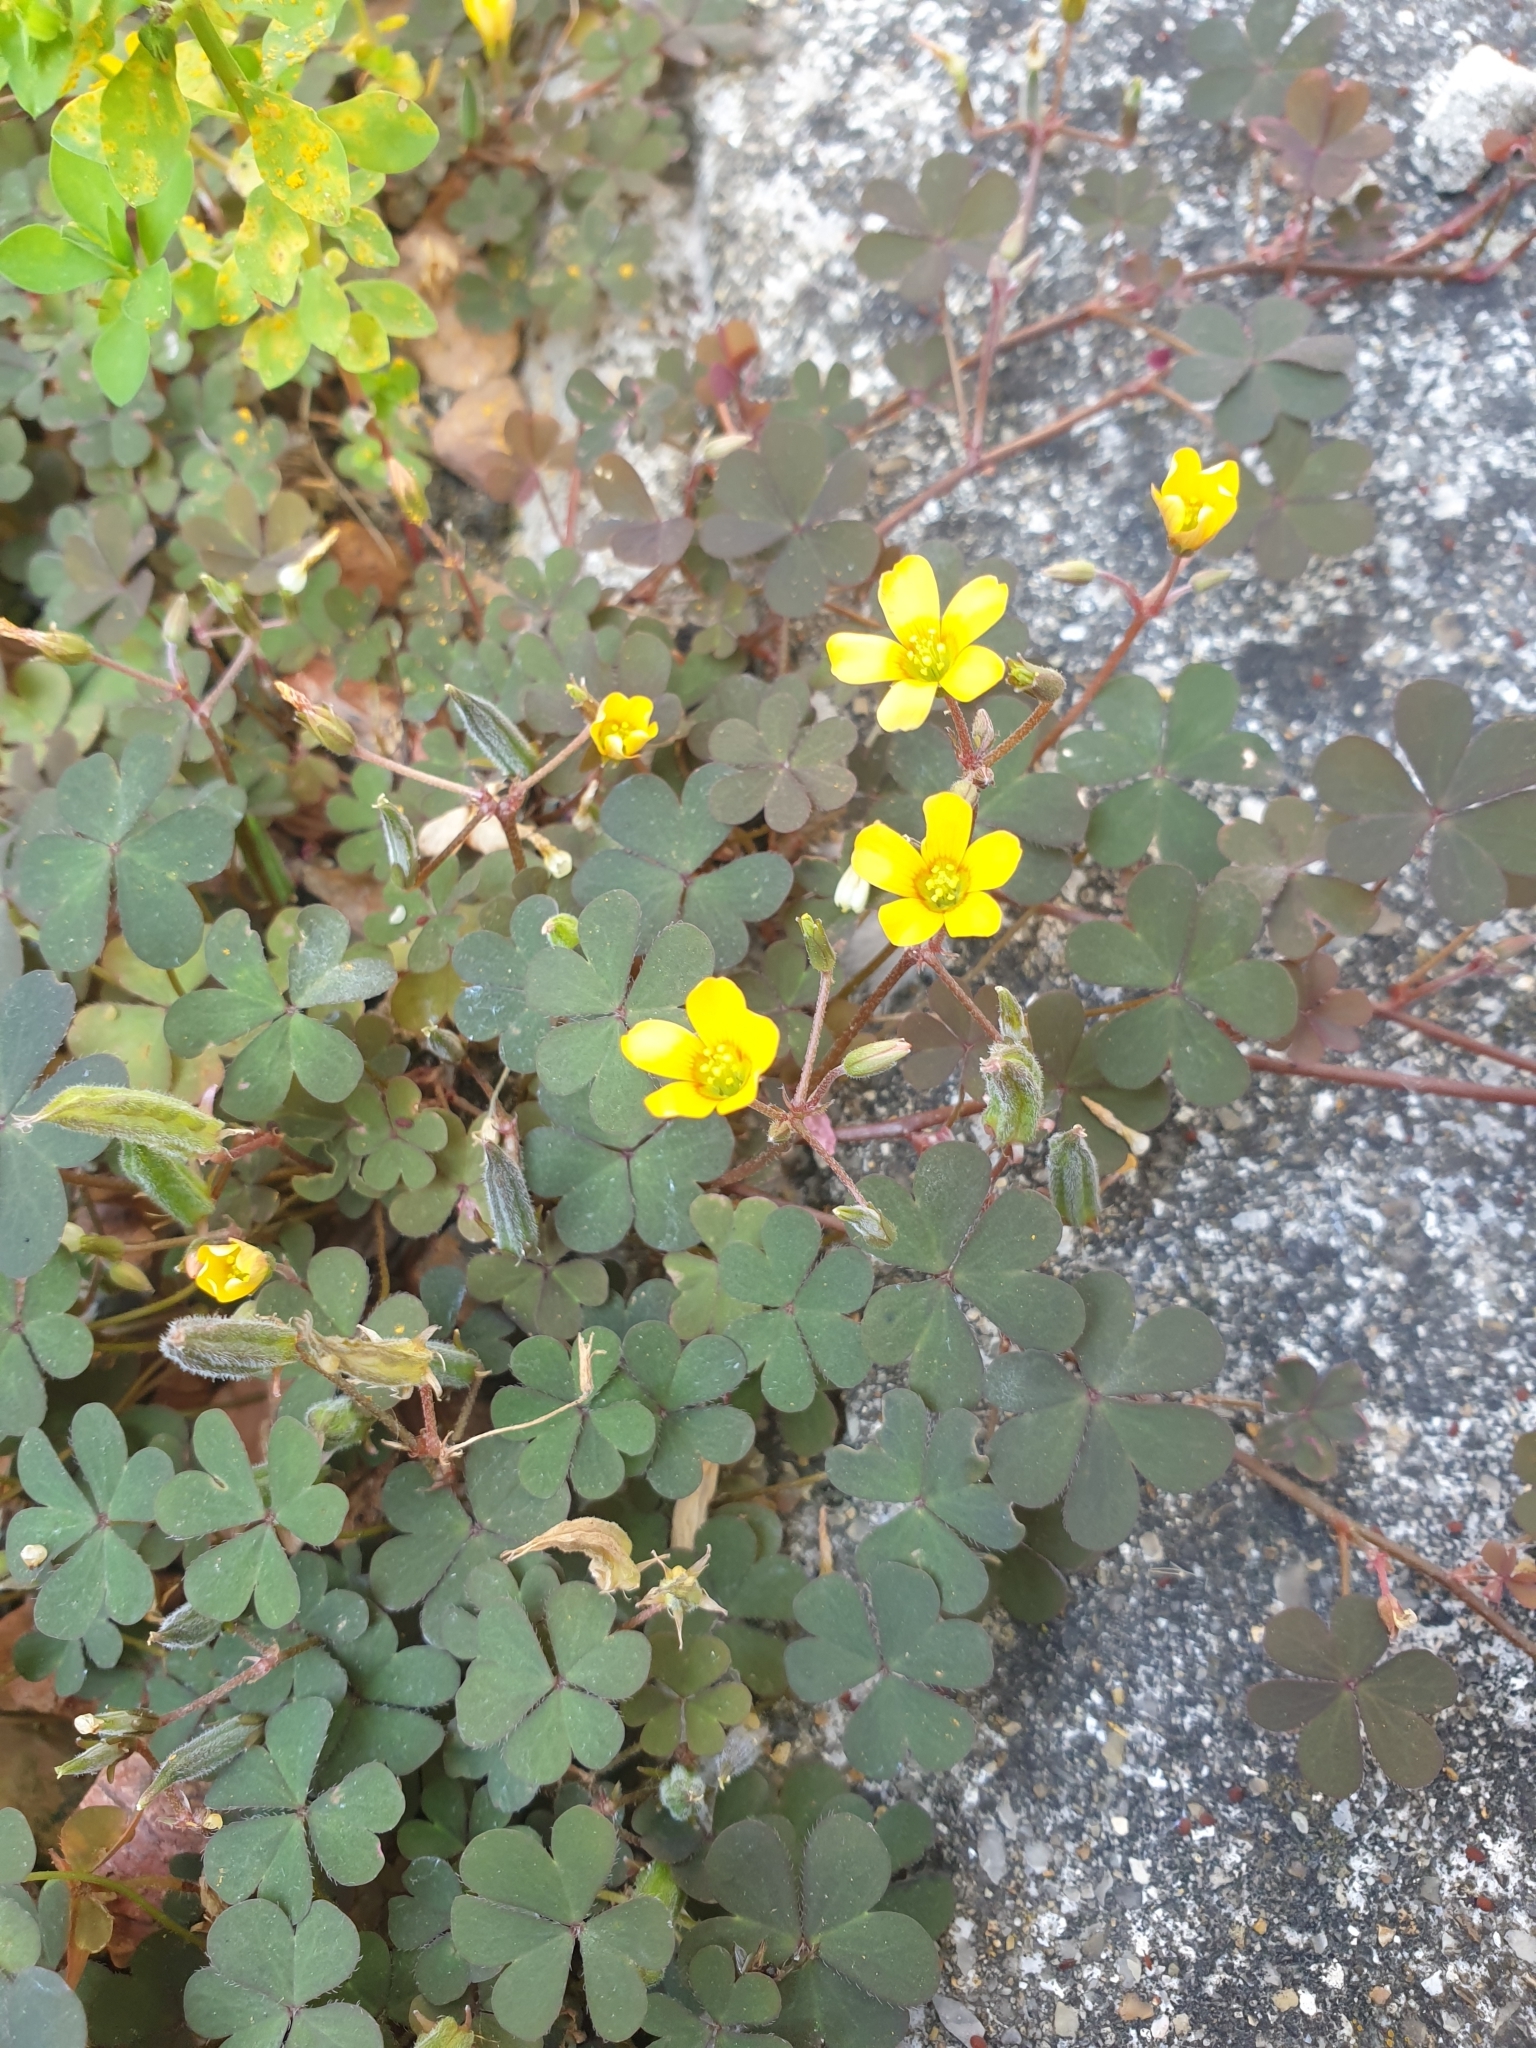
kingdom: Plantae
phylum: Tracheophyta
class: Magnoliopsida
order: Oxalidales
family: Oxalidaceae
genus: Oxalis
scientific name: Oxalis corniculata
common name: Procumbent yellow-sorrel
